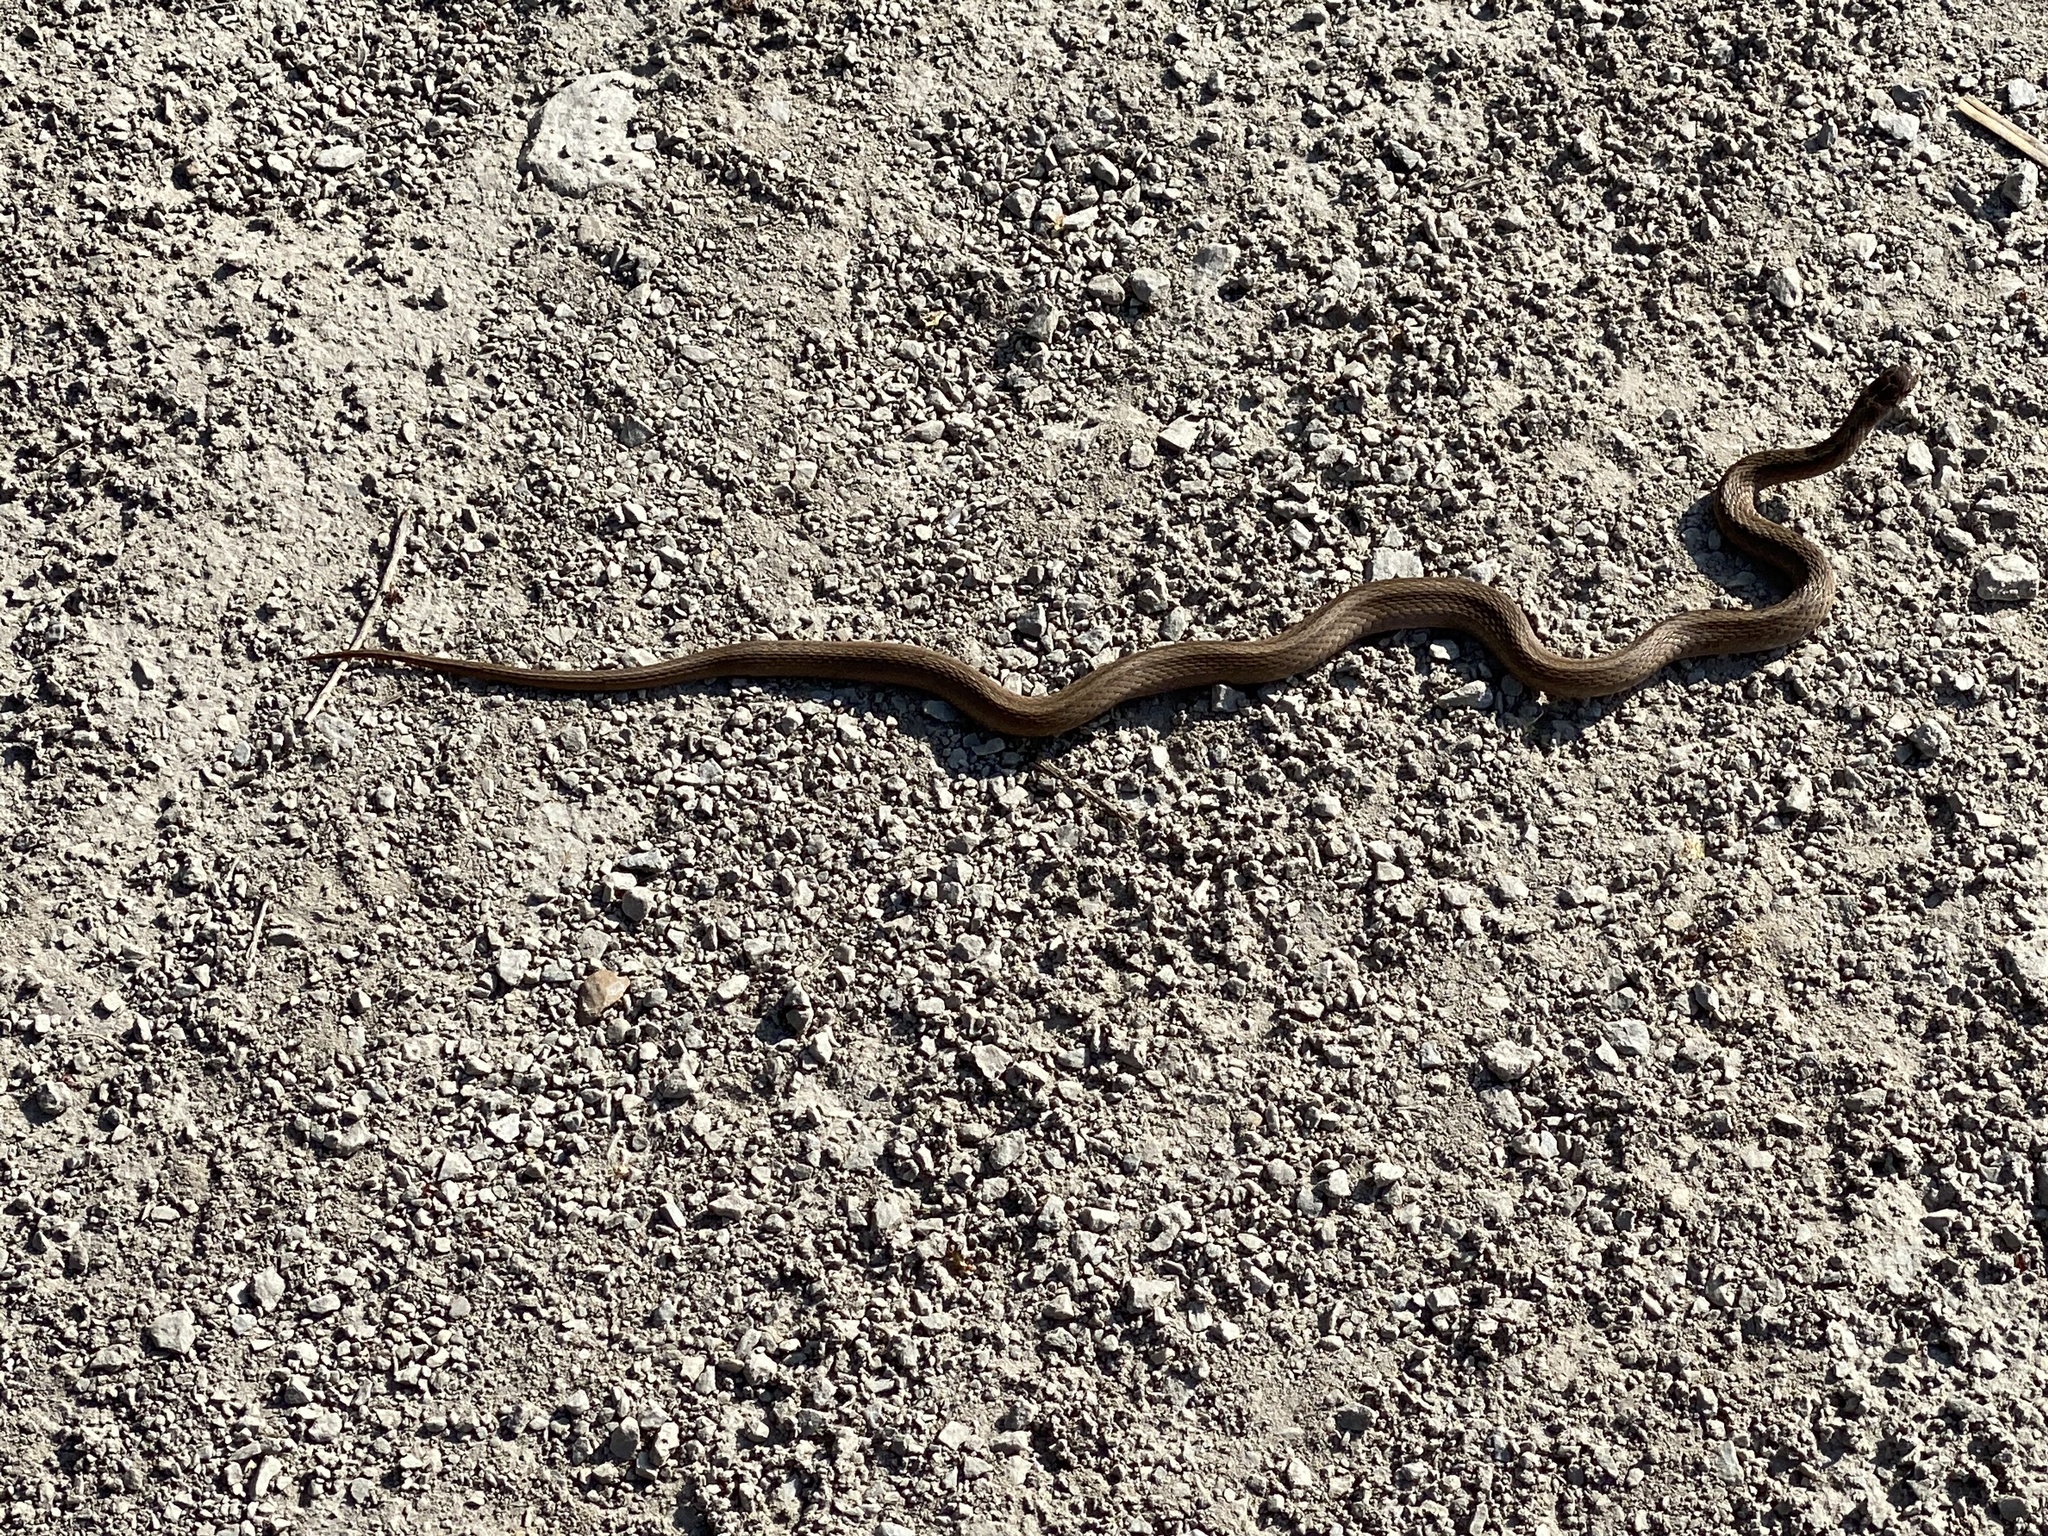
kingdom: Animalia
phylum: Chordata
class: Squamata
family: Colubridae
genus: Storeria
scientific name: Storeria dekayi
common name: (dekay’s) brown snake
